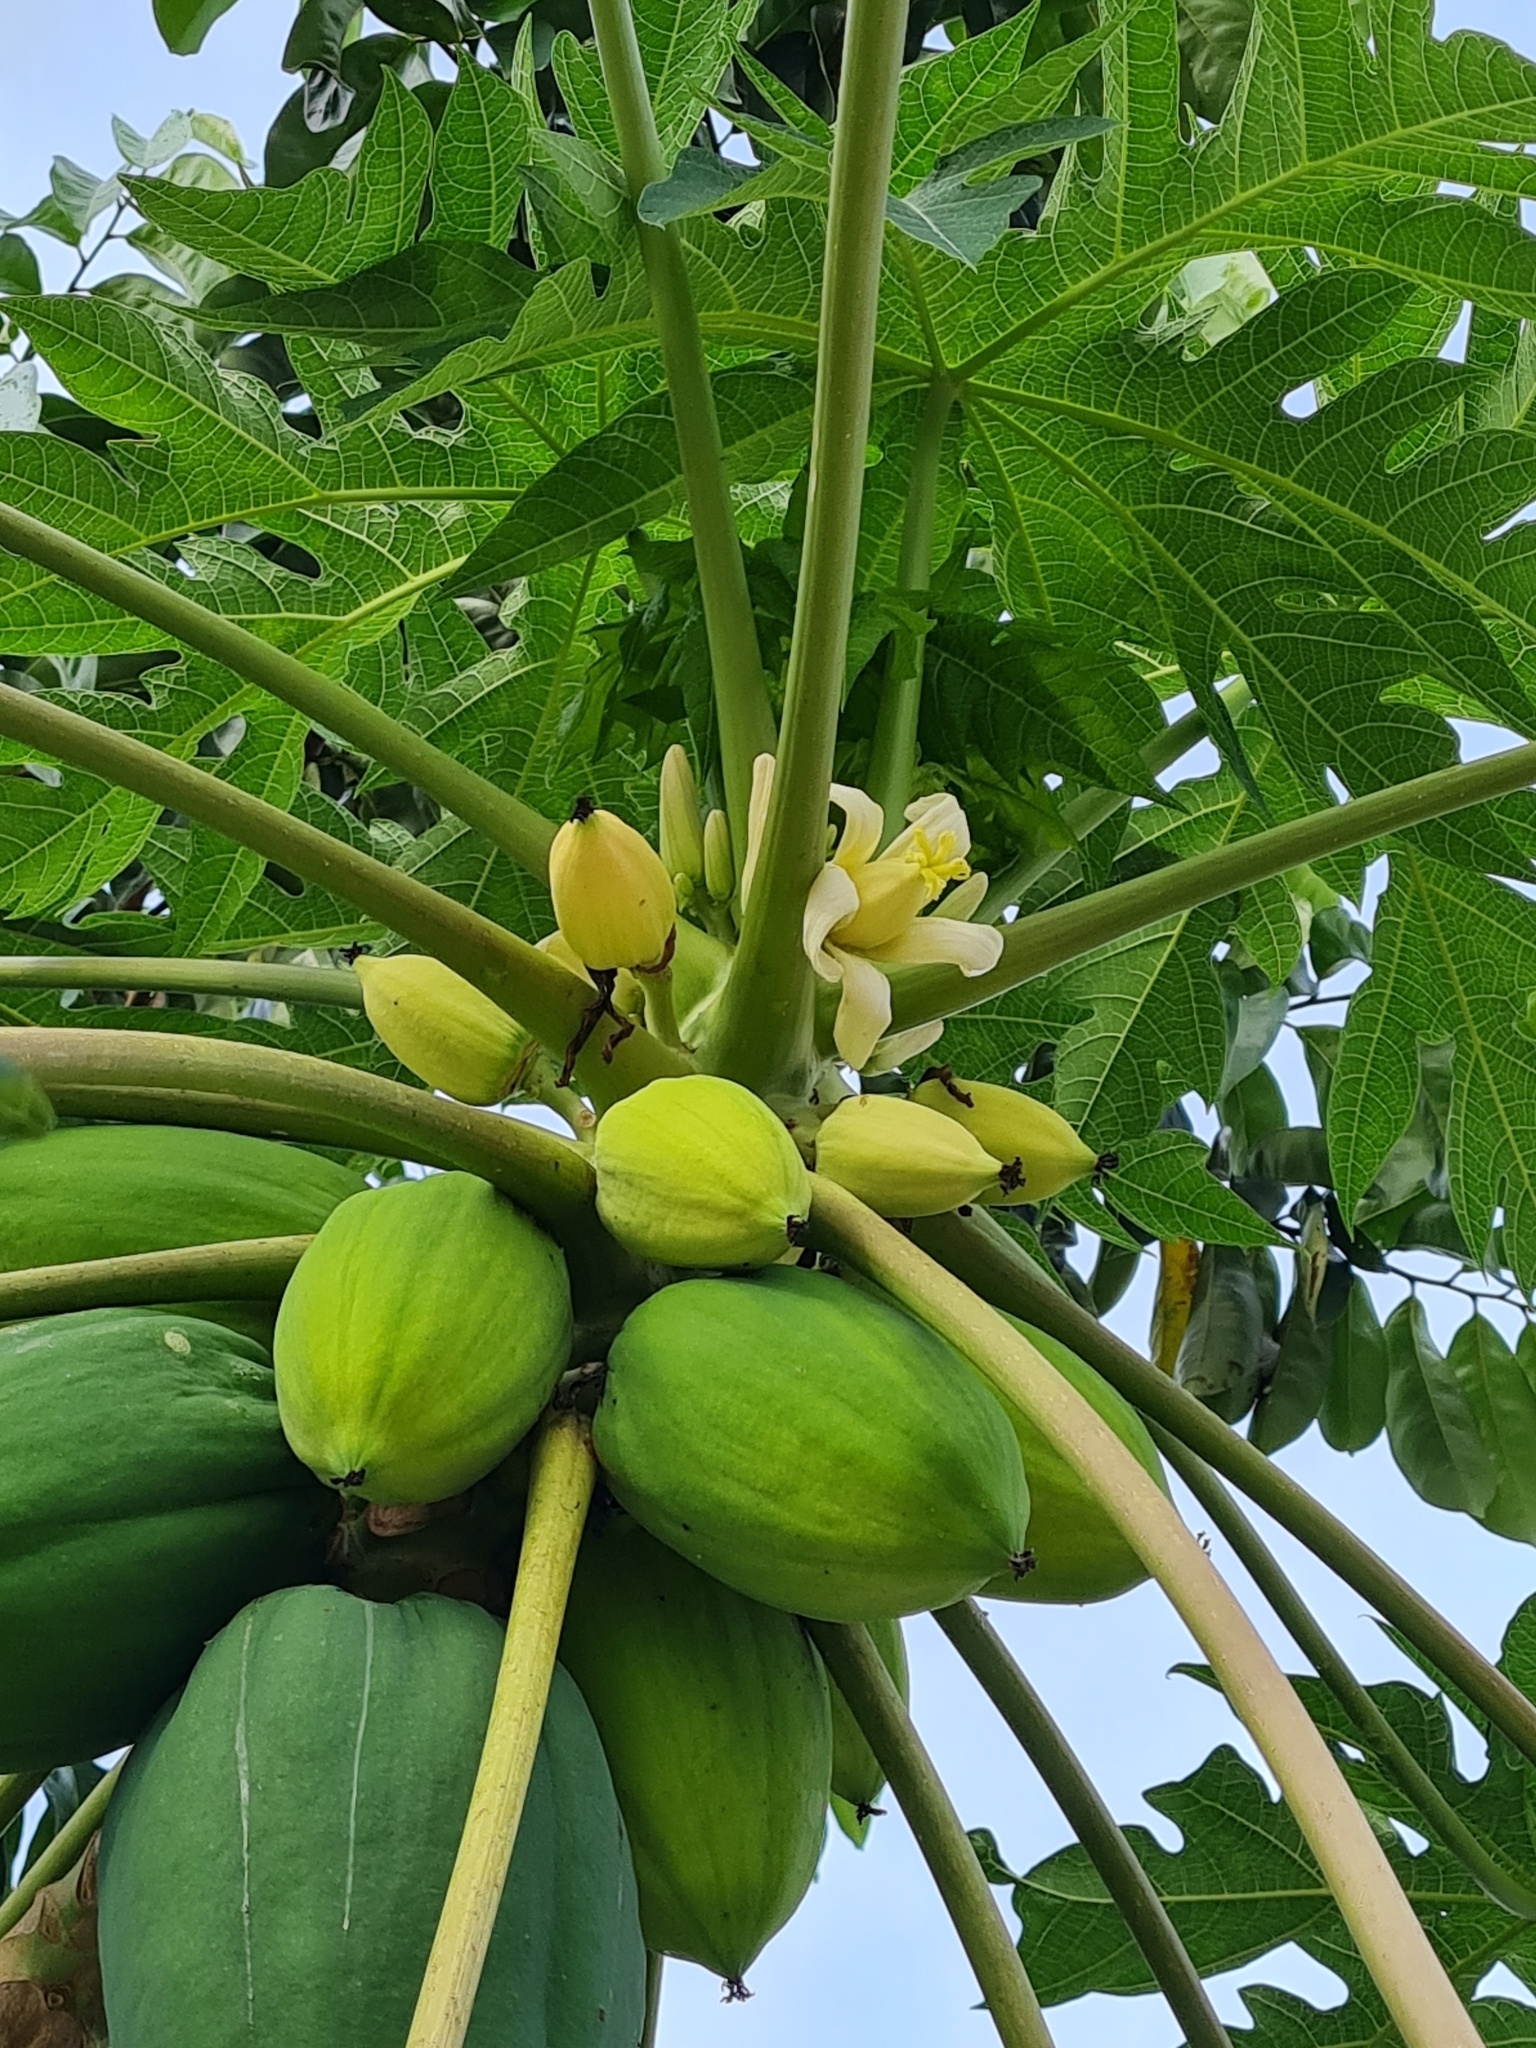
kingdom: Plantae
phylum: Tracheophyta
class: Magnoliopsida
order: Brassicales
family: Caricaceae
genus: Carica
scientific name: Carica papaya
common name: Papaya
